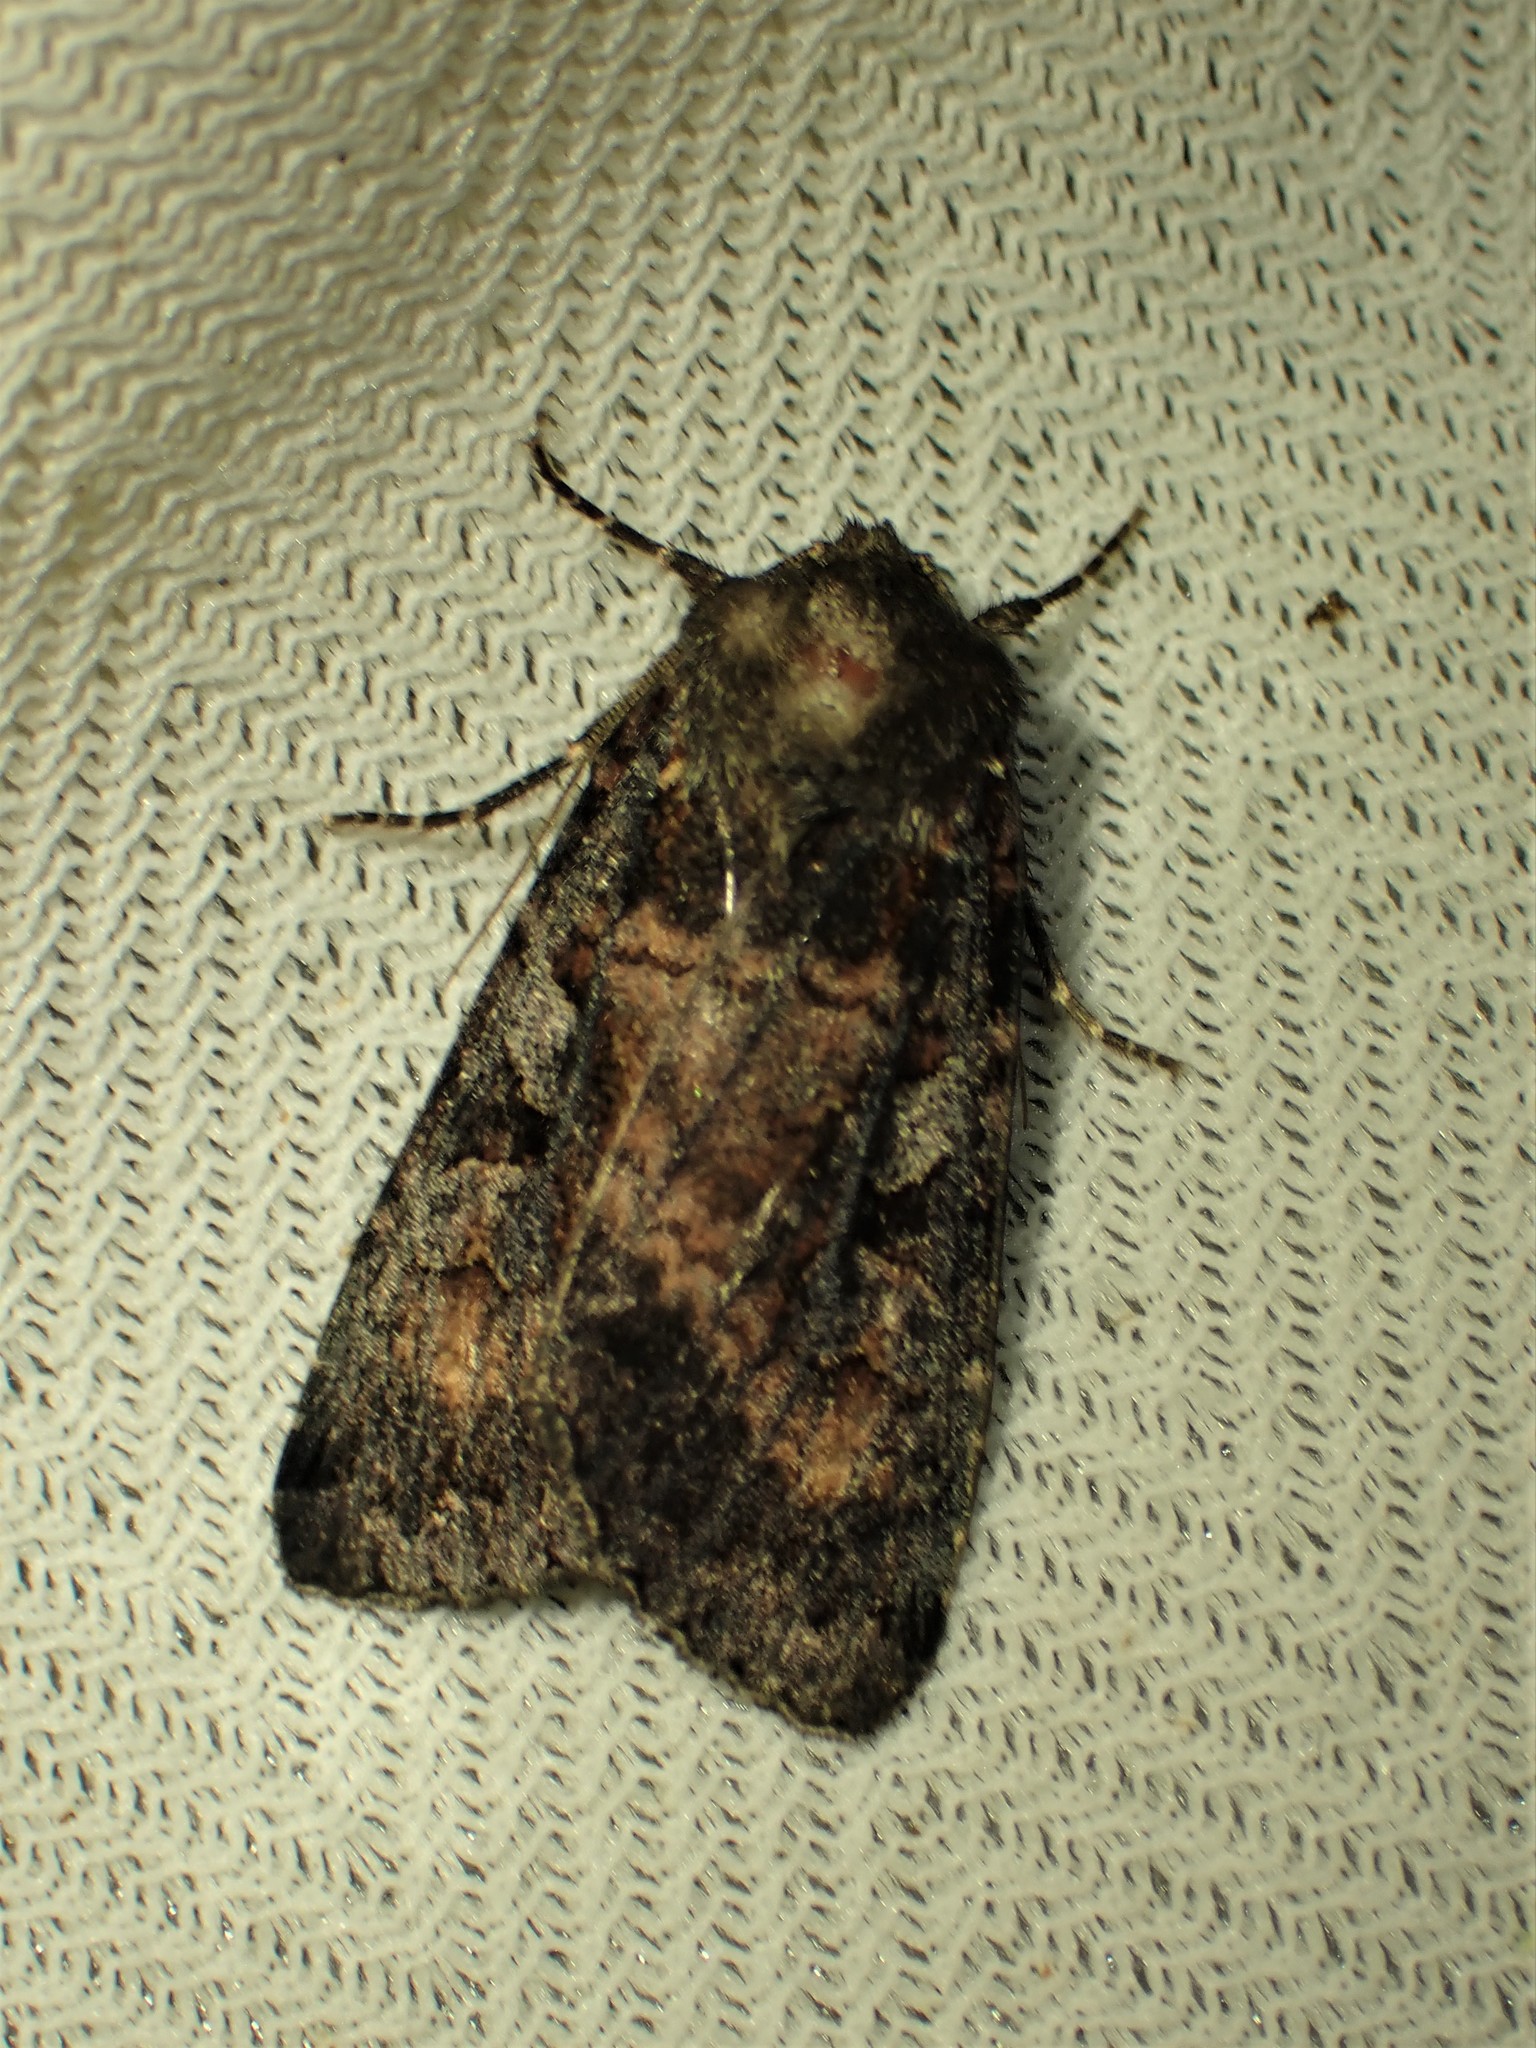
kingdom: Animalia
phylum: Arthropoda
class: Insecta
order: Lepidoptera
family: Noctuidae
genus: Eurois
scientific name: Eurois astricta
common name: Great brown dart
